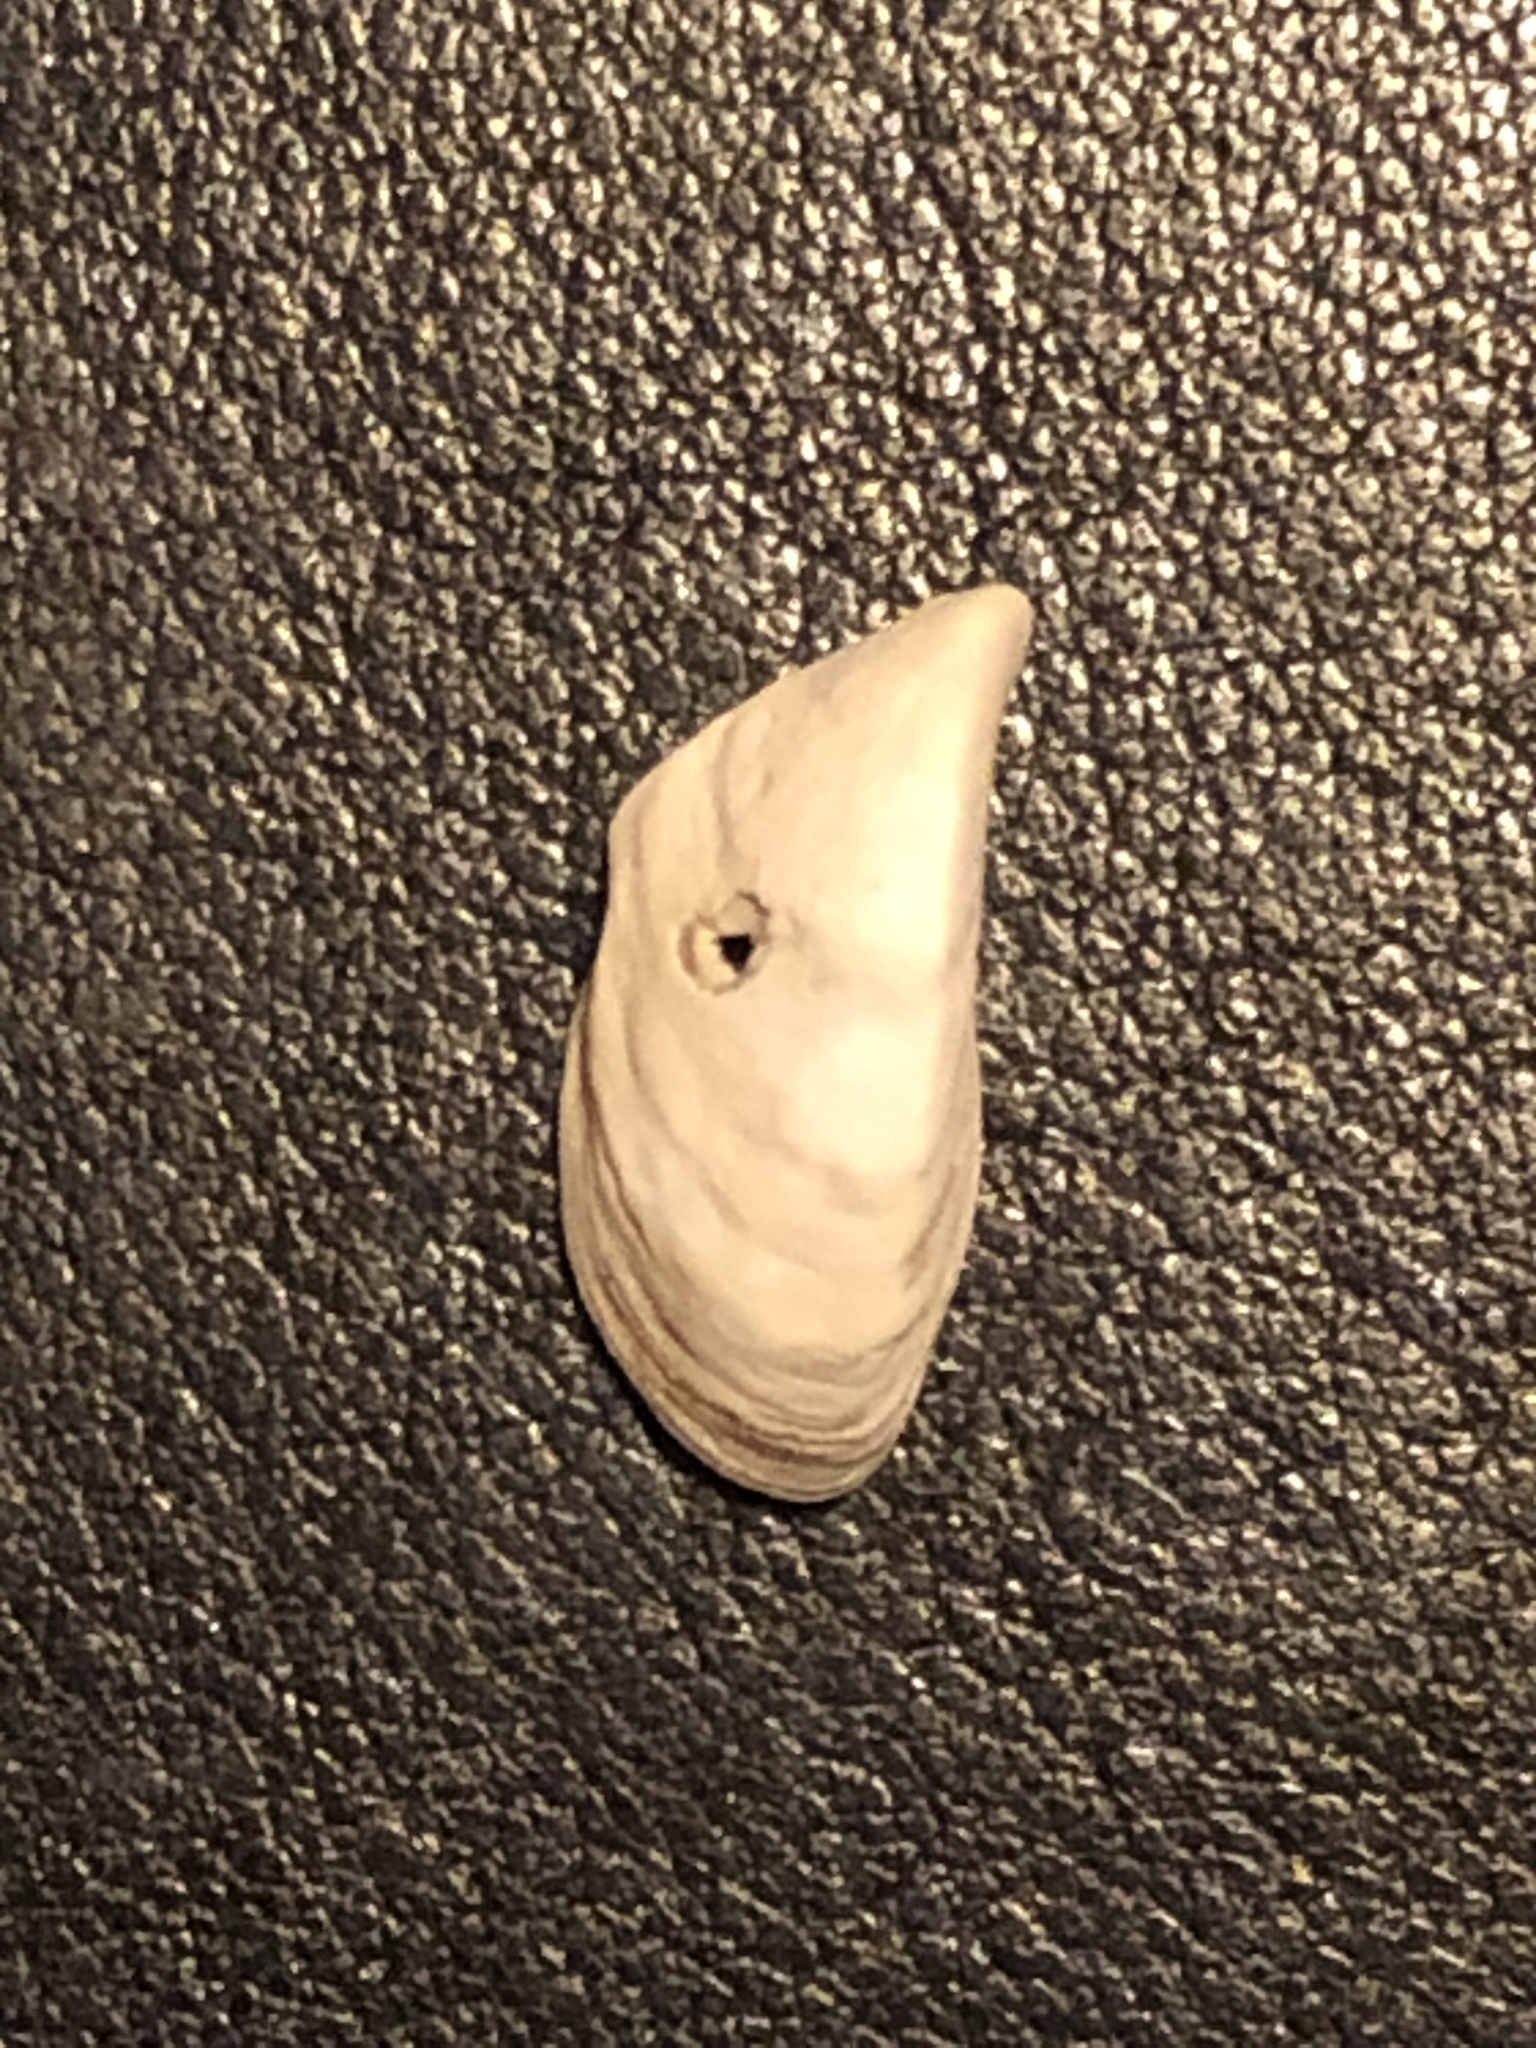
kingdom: Animalia
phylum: Mollusca
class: Bivalvia
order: Myida
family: Dreissenidae
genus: Dreissena
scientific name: Dreissena polymorpha
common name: Zebra mussel
